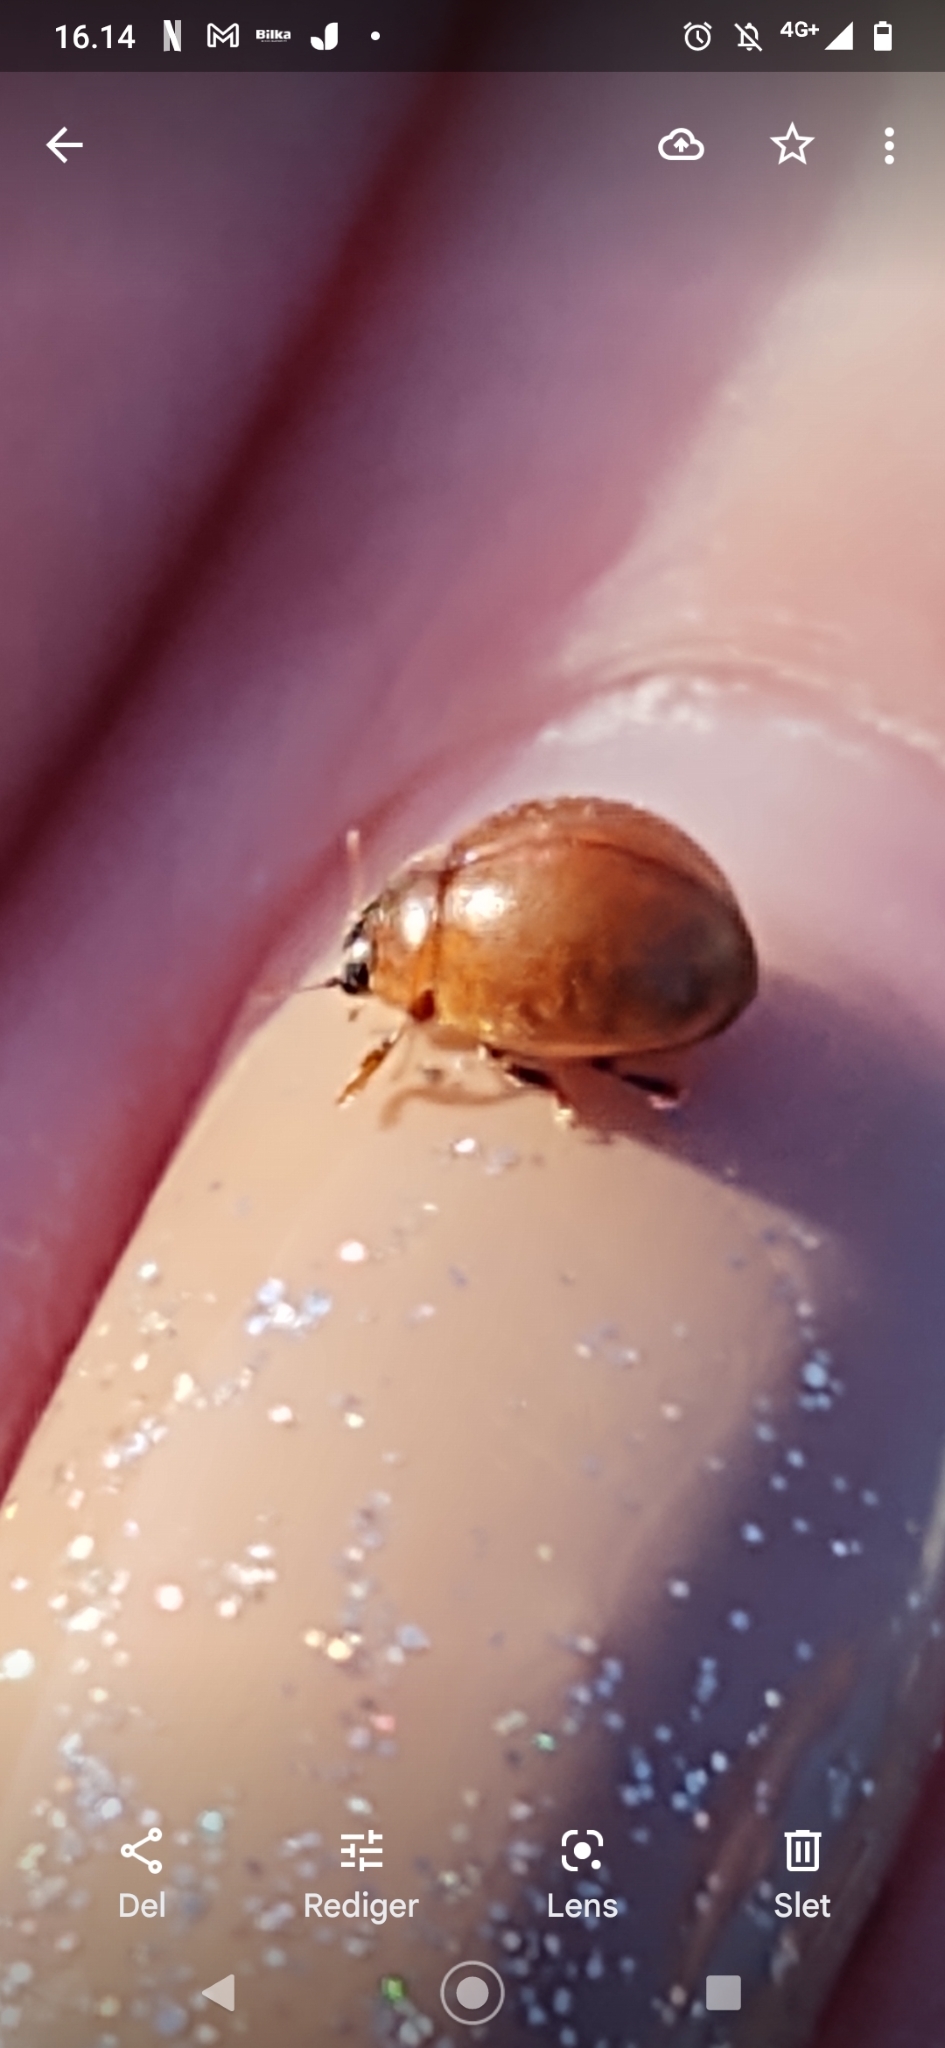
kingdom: Animalia
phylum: Arthropoda
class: Insecta
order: Coleoptera
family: Coccinellidae
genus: Cynegetis
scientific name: Cynegetis impunctata
